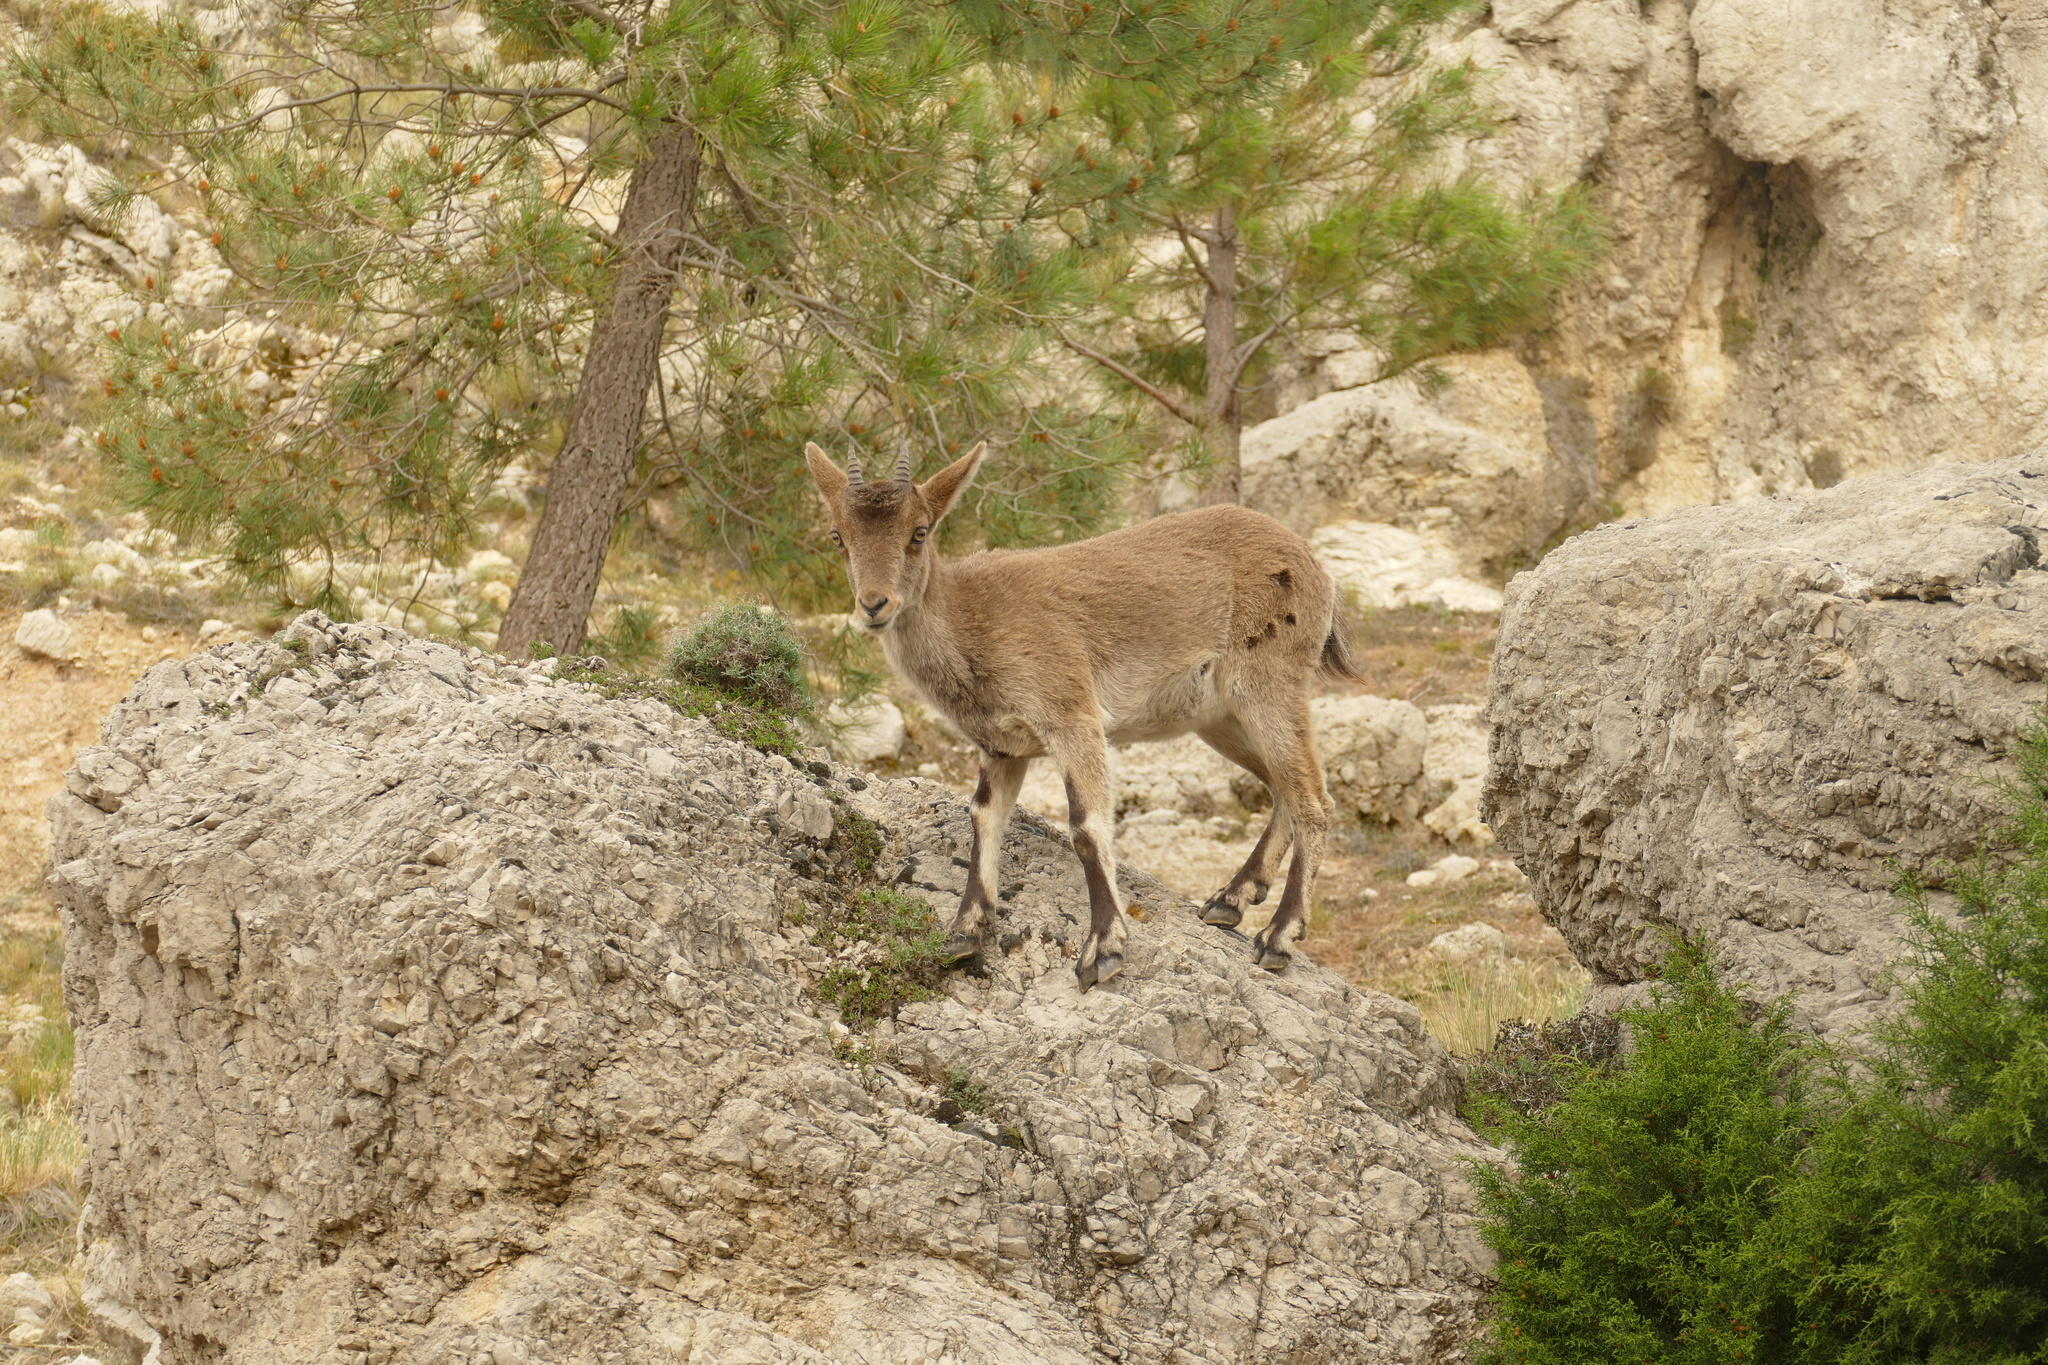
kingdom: Animalia
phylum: Chordata
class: Mammalia
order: Artiodactyla
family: Bovidae
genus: Capra
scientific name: Capra pyrenaica
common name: Spanish ibex
